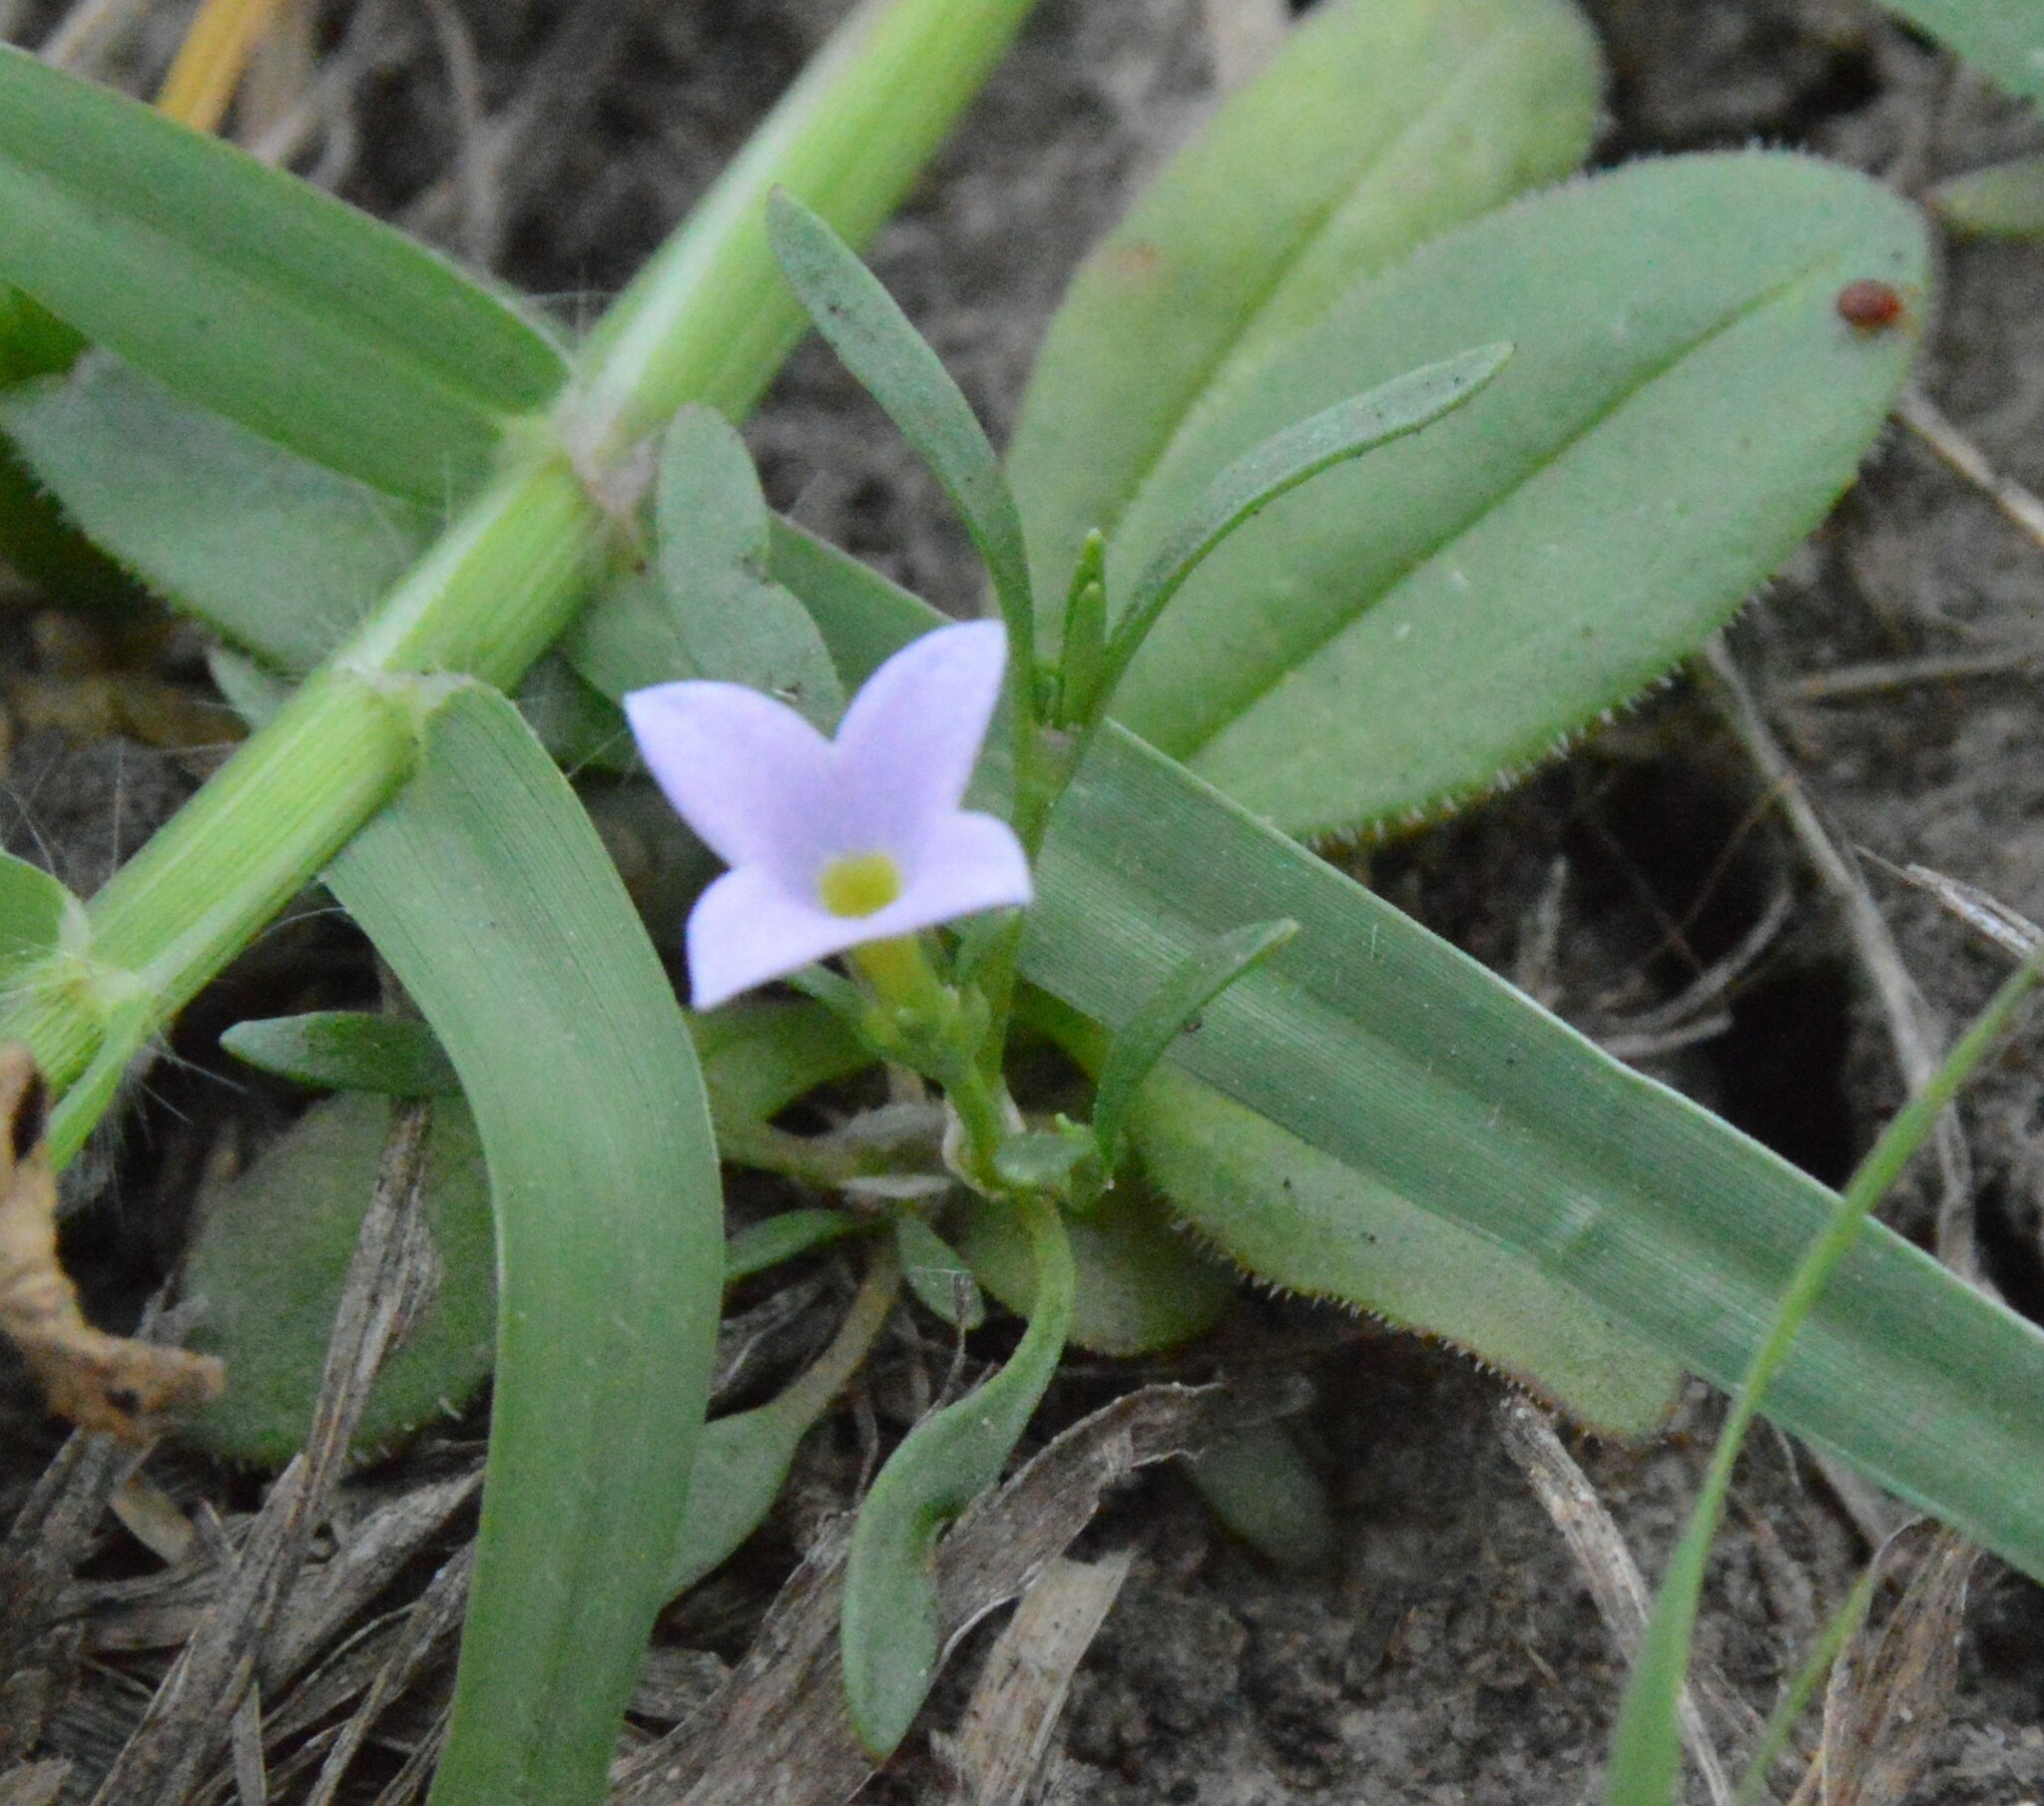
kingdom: Plantae
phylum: Tracheophyta
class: Magnoliopsida
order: Gentianales
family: Rubiaceae
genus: Houstonia
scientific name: Houstonia rosea
